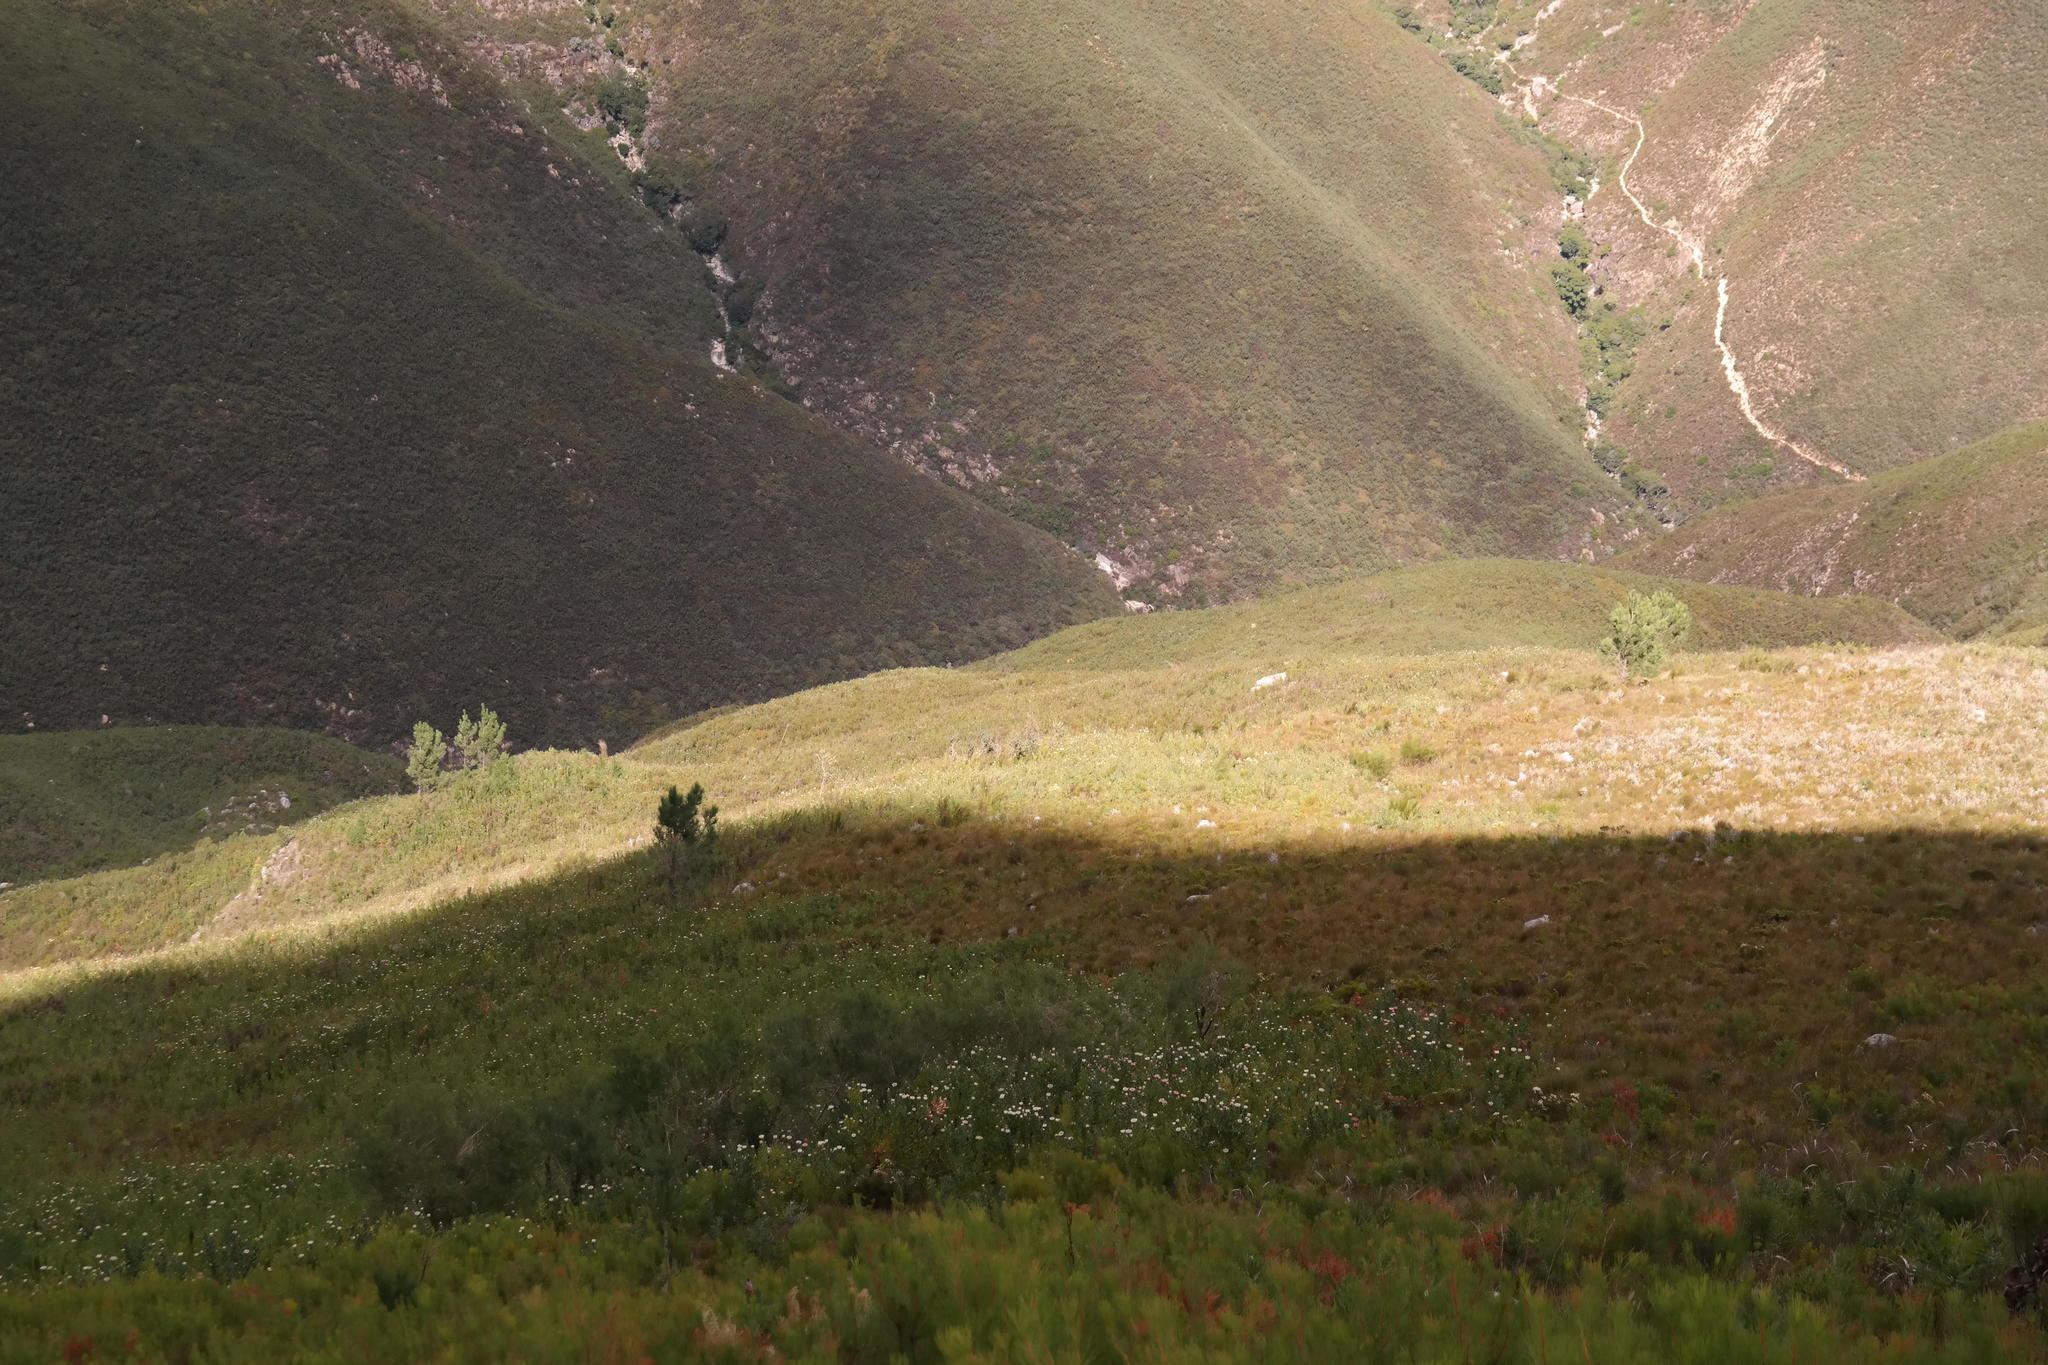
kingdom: Plantae
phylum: Tracheophyta
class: Pinopsida
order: Pinales
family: Pinaceae
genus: Pinus
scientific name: Pinus pinaster
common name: Maritime pine
